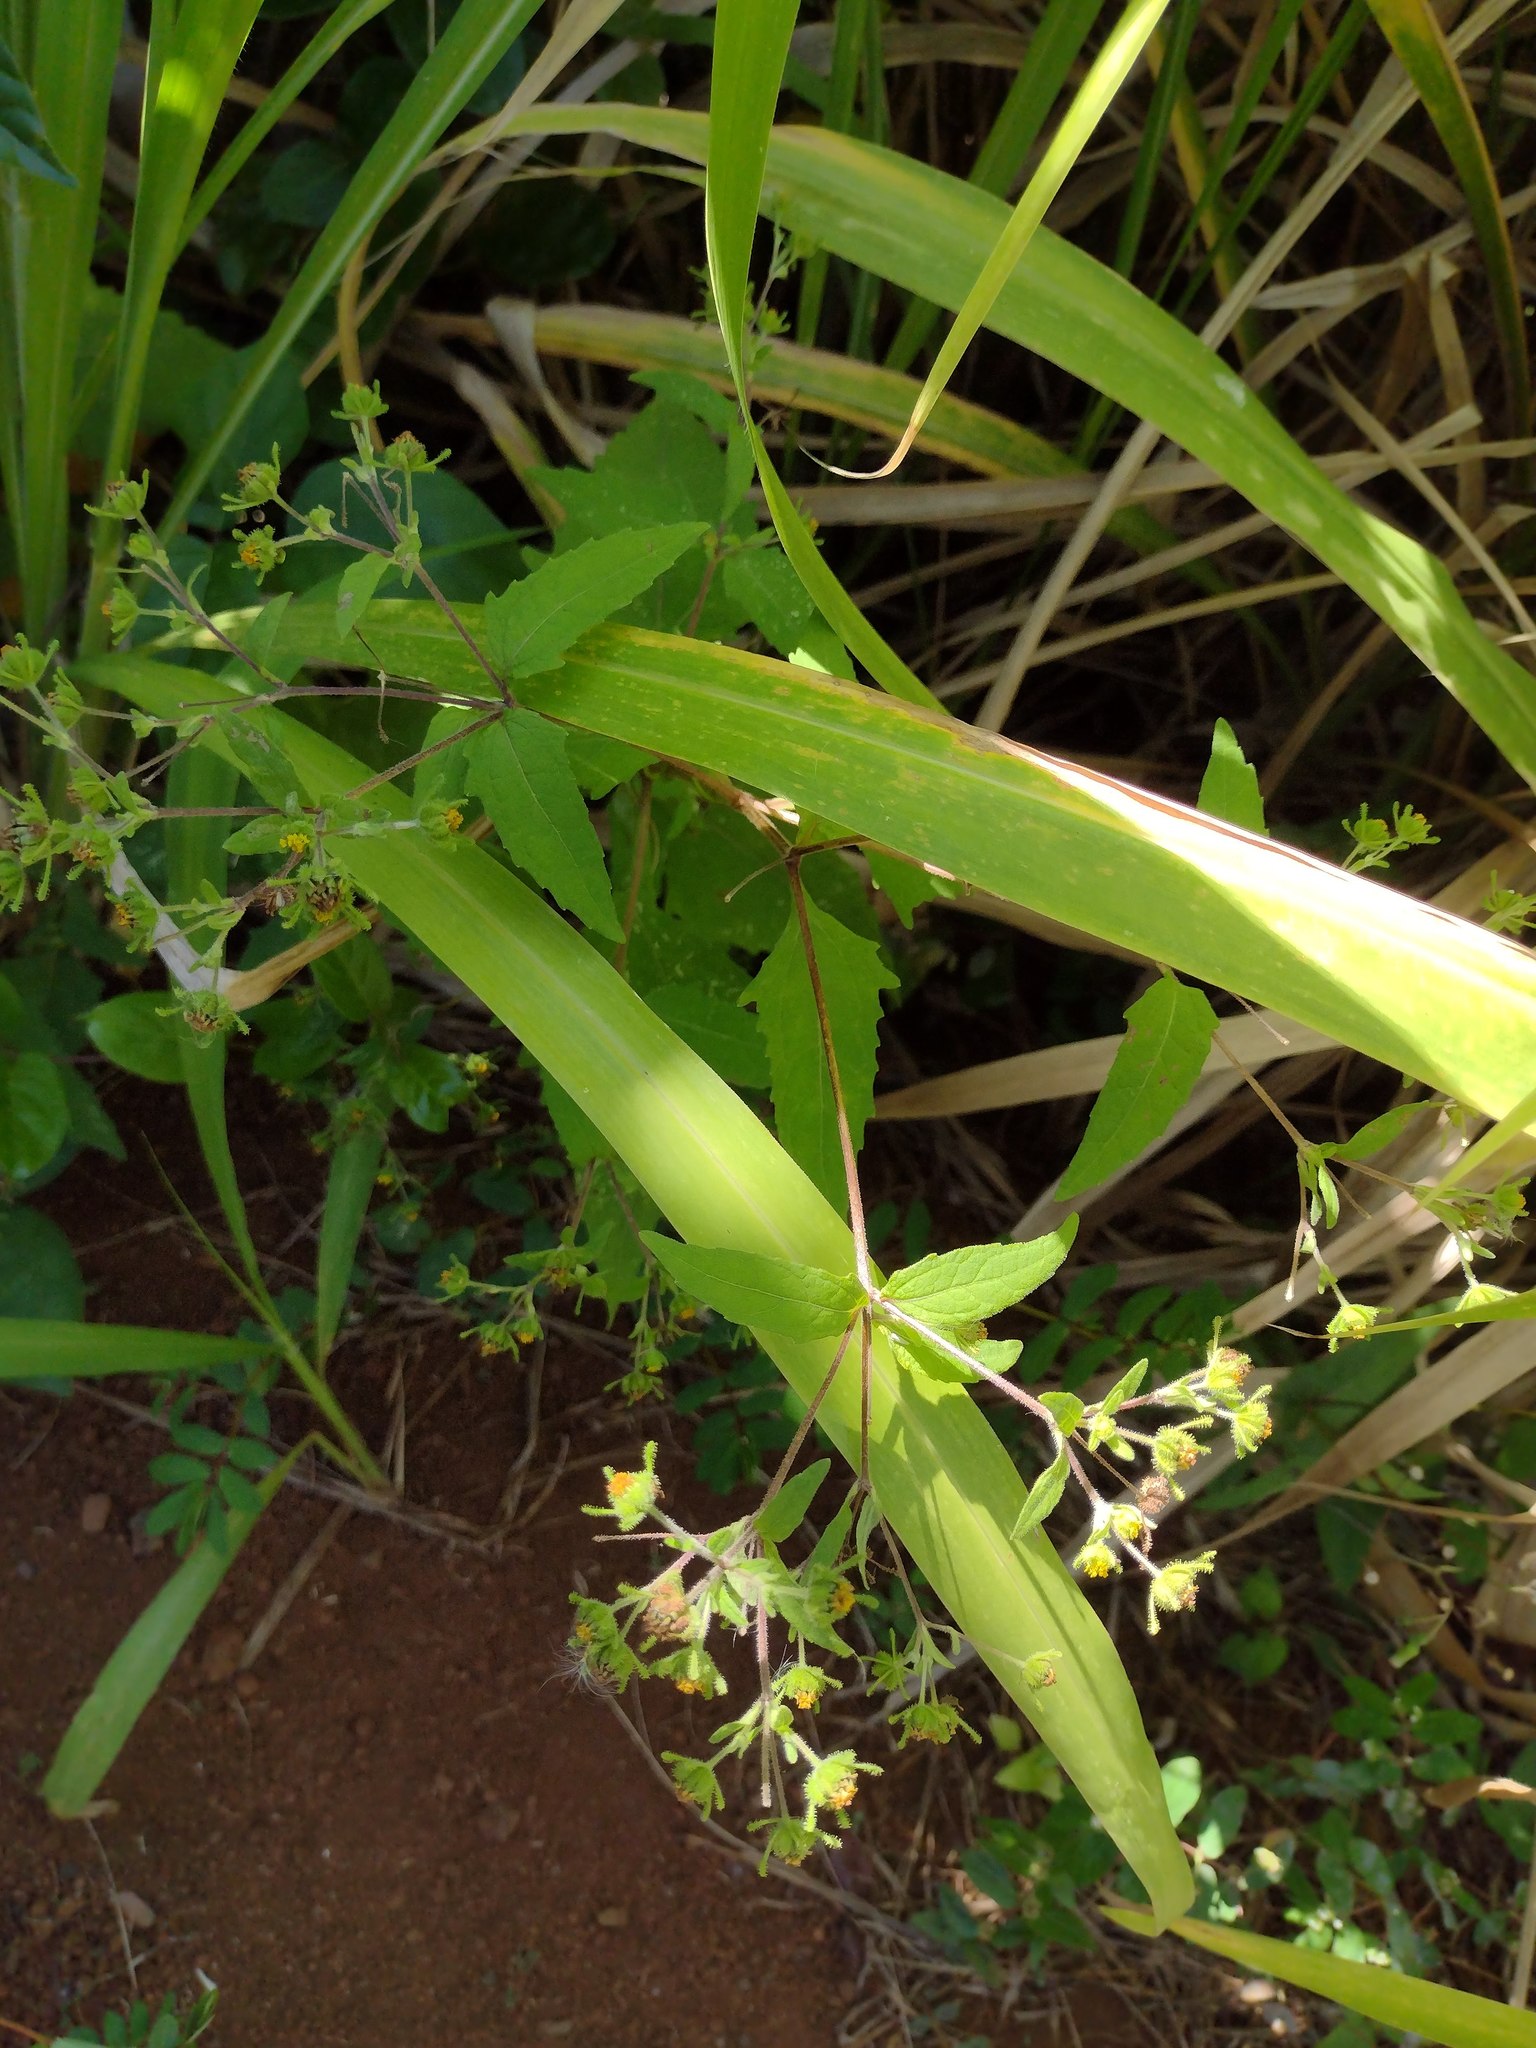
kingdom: Plantae
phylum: Tracheophyta
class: Magnoliopsida
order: Asterales
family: Asteraceae
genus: Sigesbeckia
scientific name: Sigesbeckia orientalis
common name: Eastern st paul's-wort
